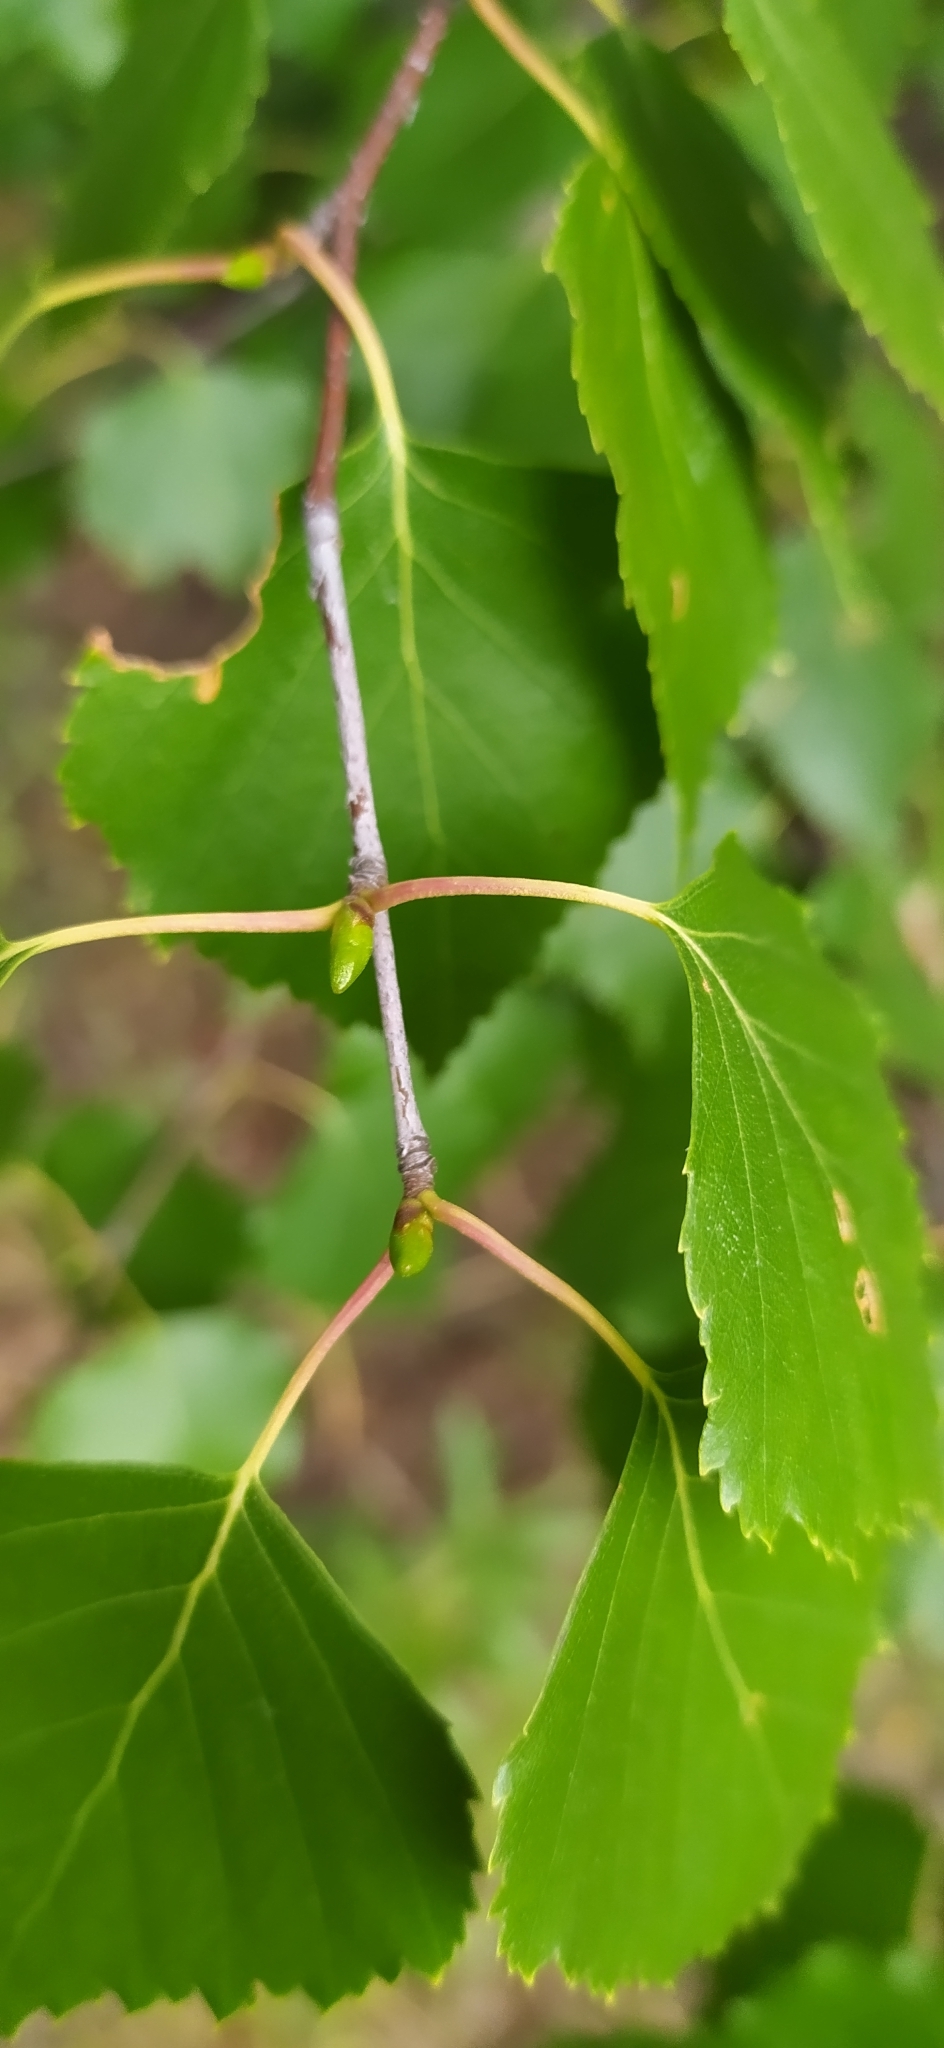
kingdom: Plantae
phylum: Tracheophyta
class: Magnoliopsida
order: Fagales
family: Betulaceae
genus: Betula
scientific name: Betula pendula
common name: Silver birch
